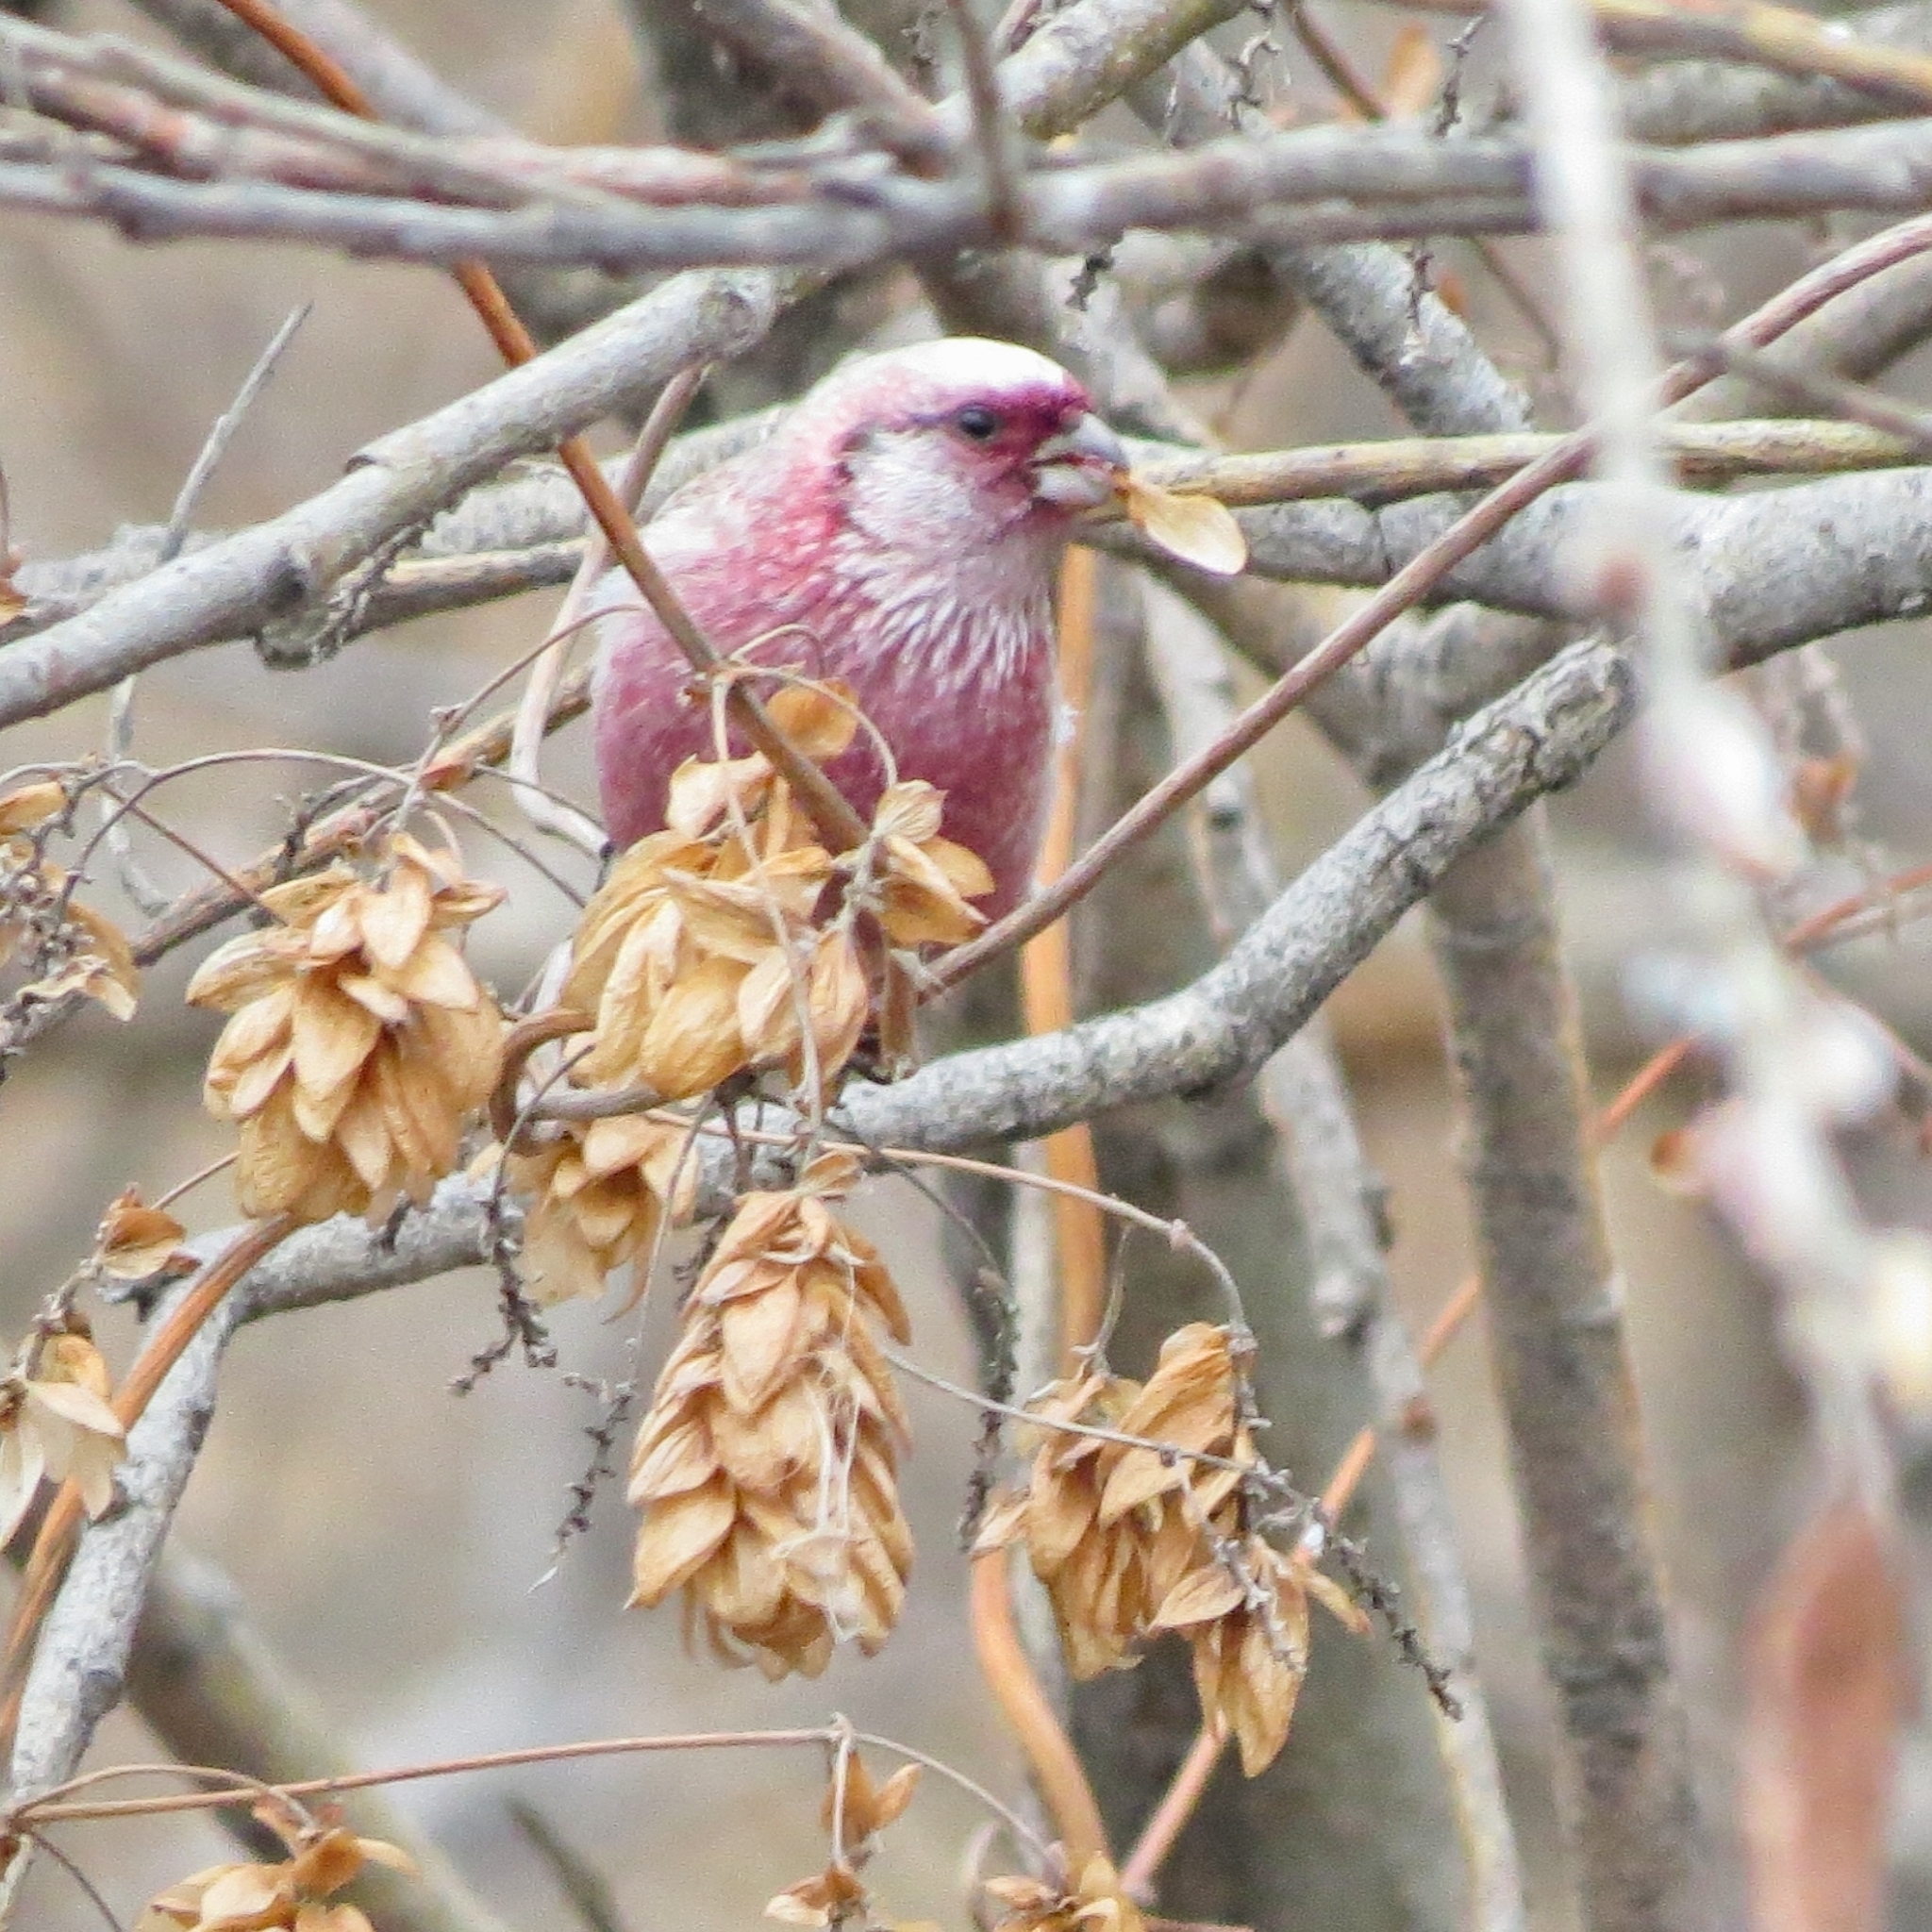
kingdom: Animalia
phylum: Chordata
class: Aves
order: Passeriformes
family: Fringillidae
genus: Carpodacus
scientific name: Carpodacus sibiricus
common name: Long-tailed rosefinch
